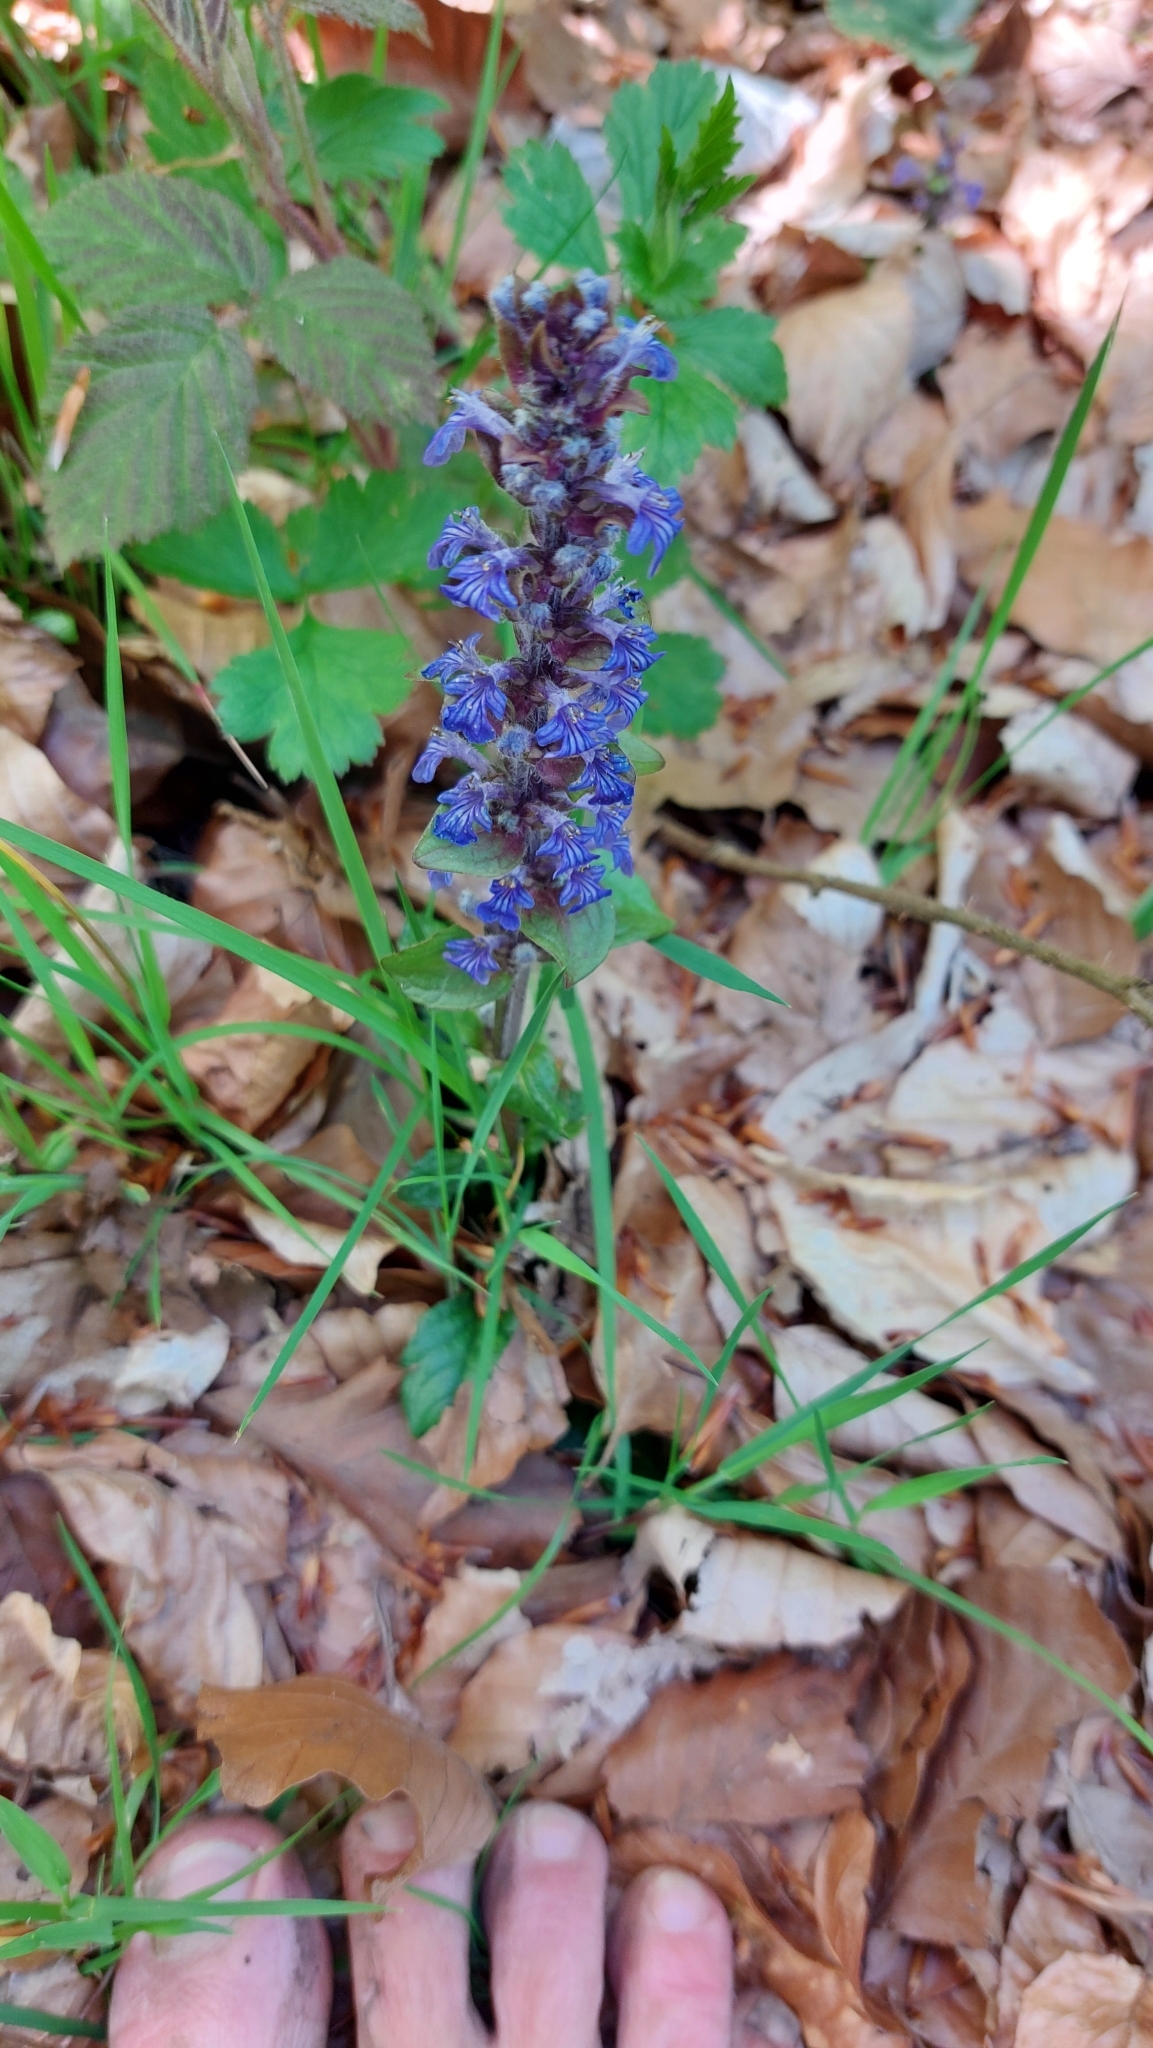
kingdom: Plantae
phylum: Tracheophyta
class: Magnoliopsida
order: Lamiales
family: Lamiaceae
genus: Ajuga
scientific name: Ajuga reptans
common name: Bugle
